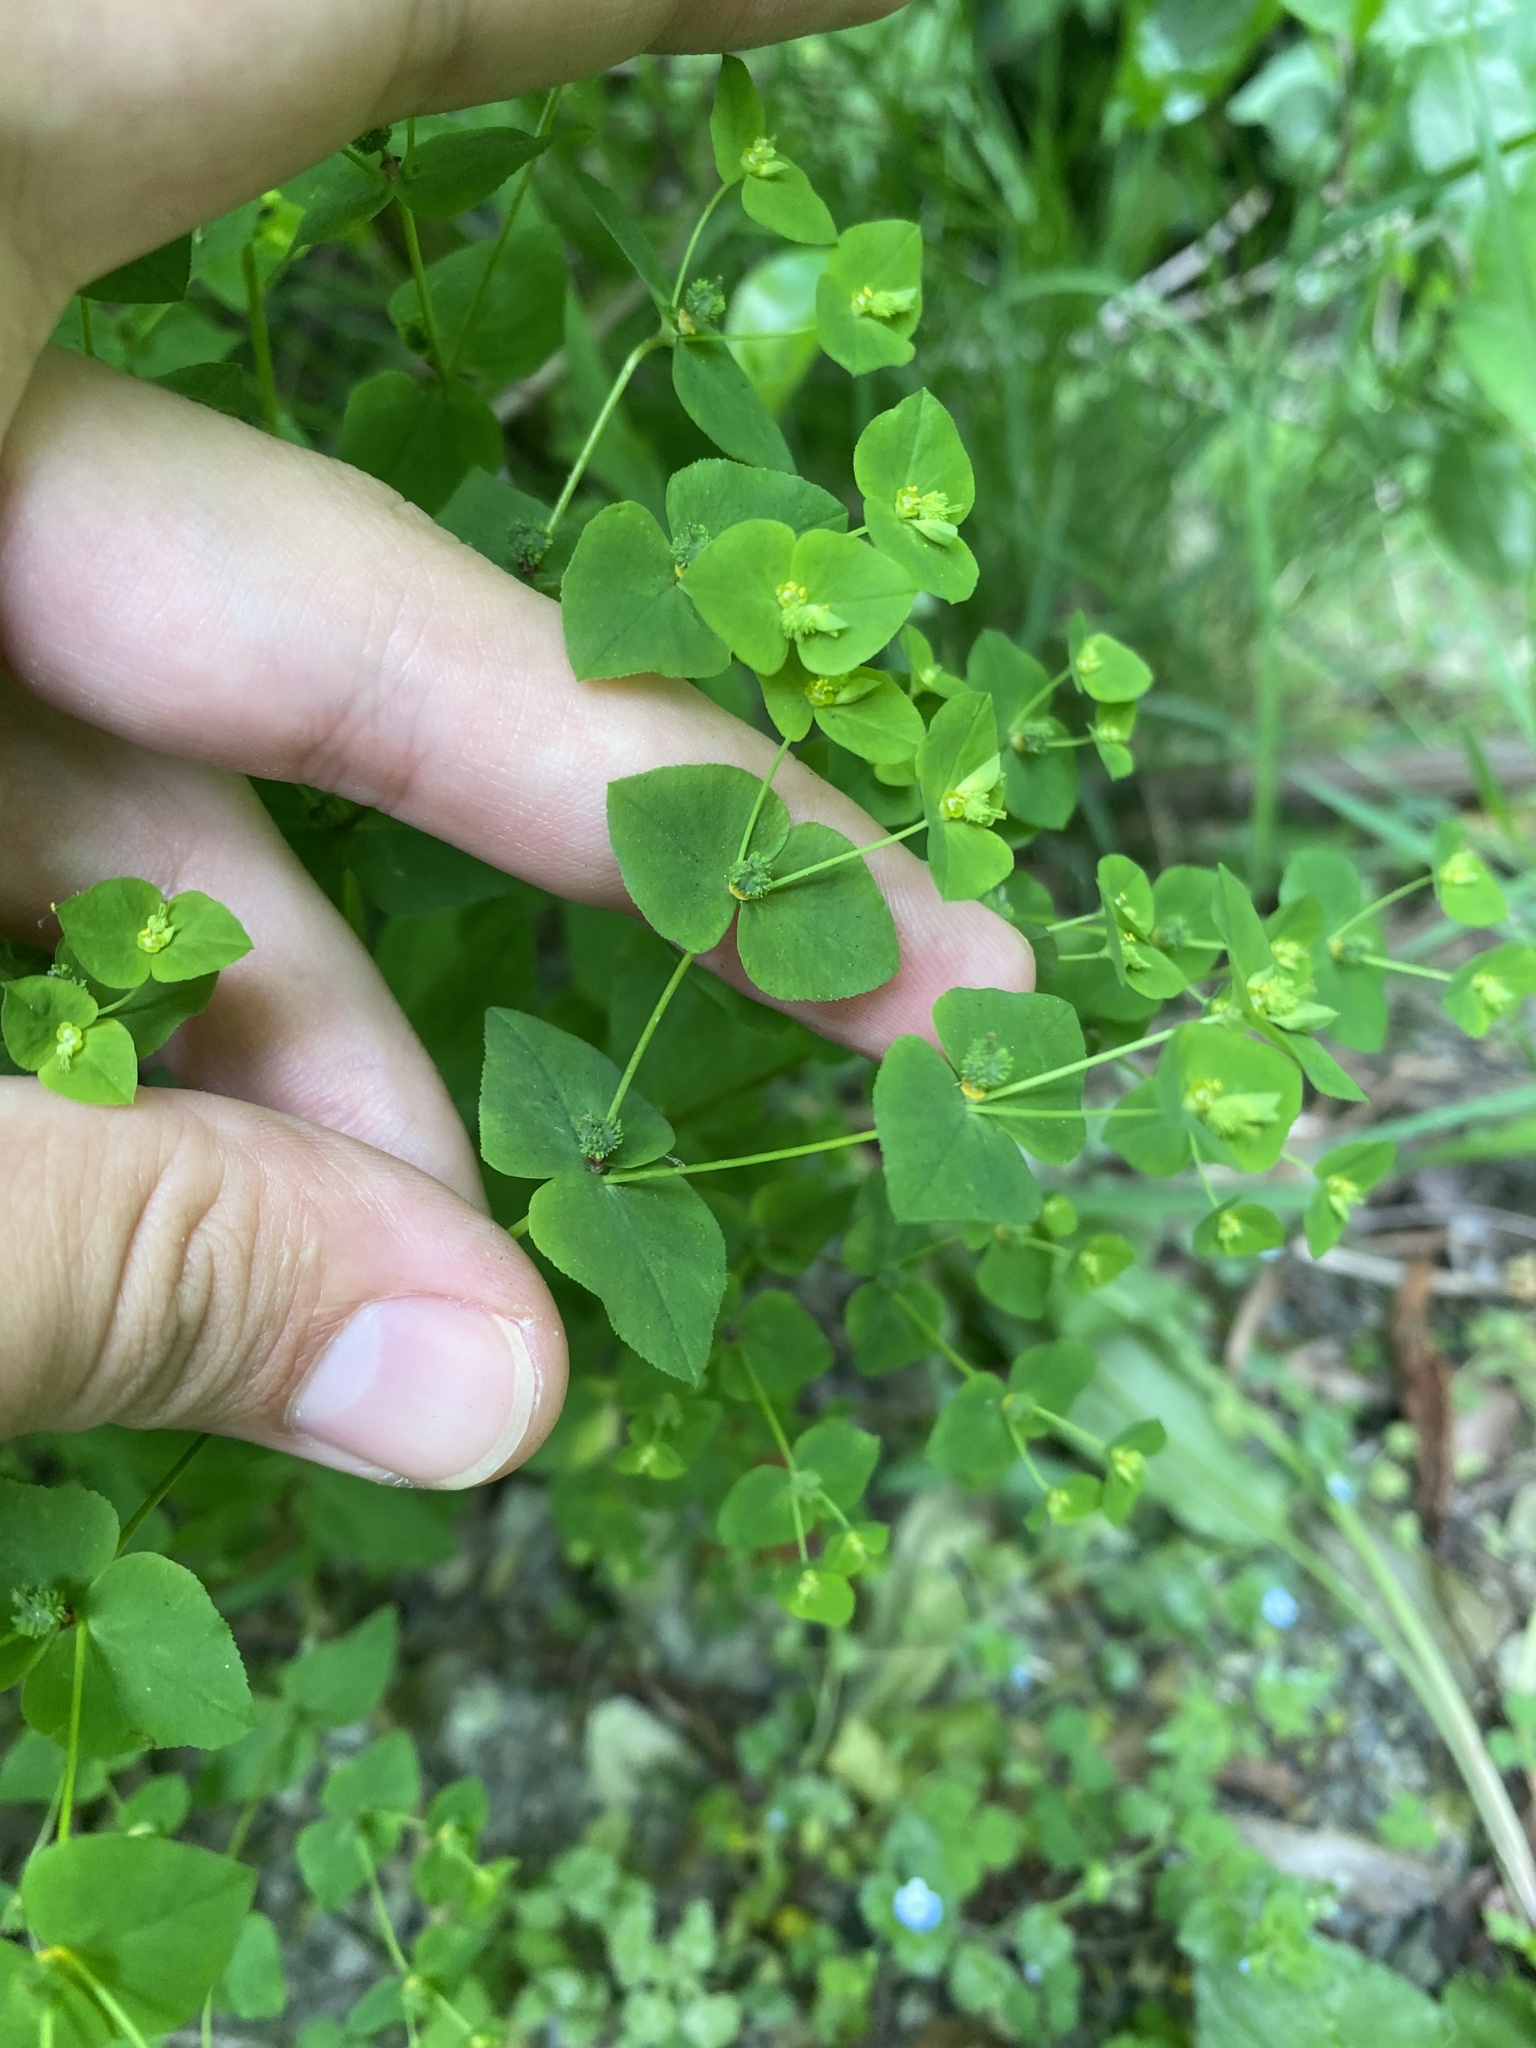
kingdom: Plantae
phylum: Tracheophyta
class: Magnoliopsida
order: Malpighiales
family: Euphorbiaceae
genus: Euphorbia
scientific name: Euphorbia stricta
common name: Upright spurge
